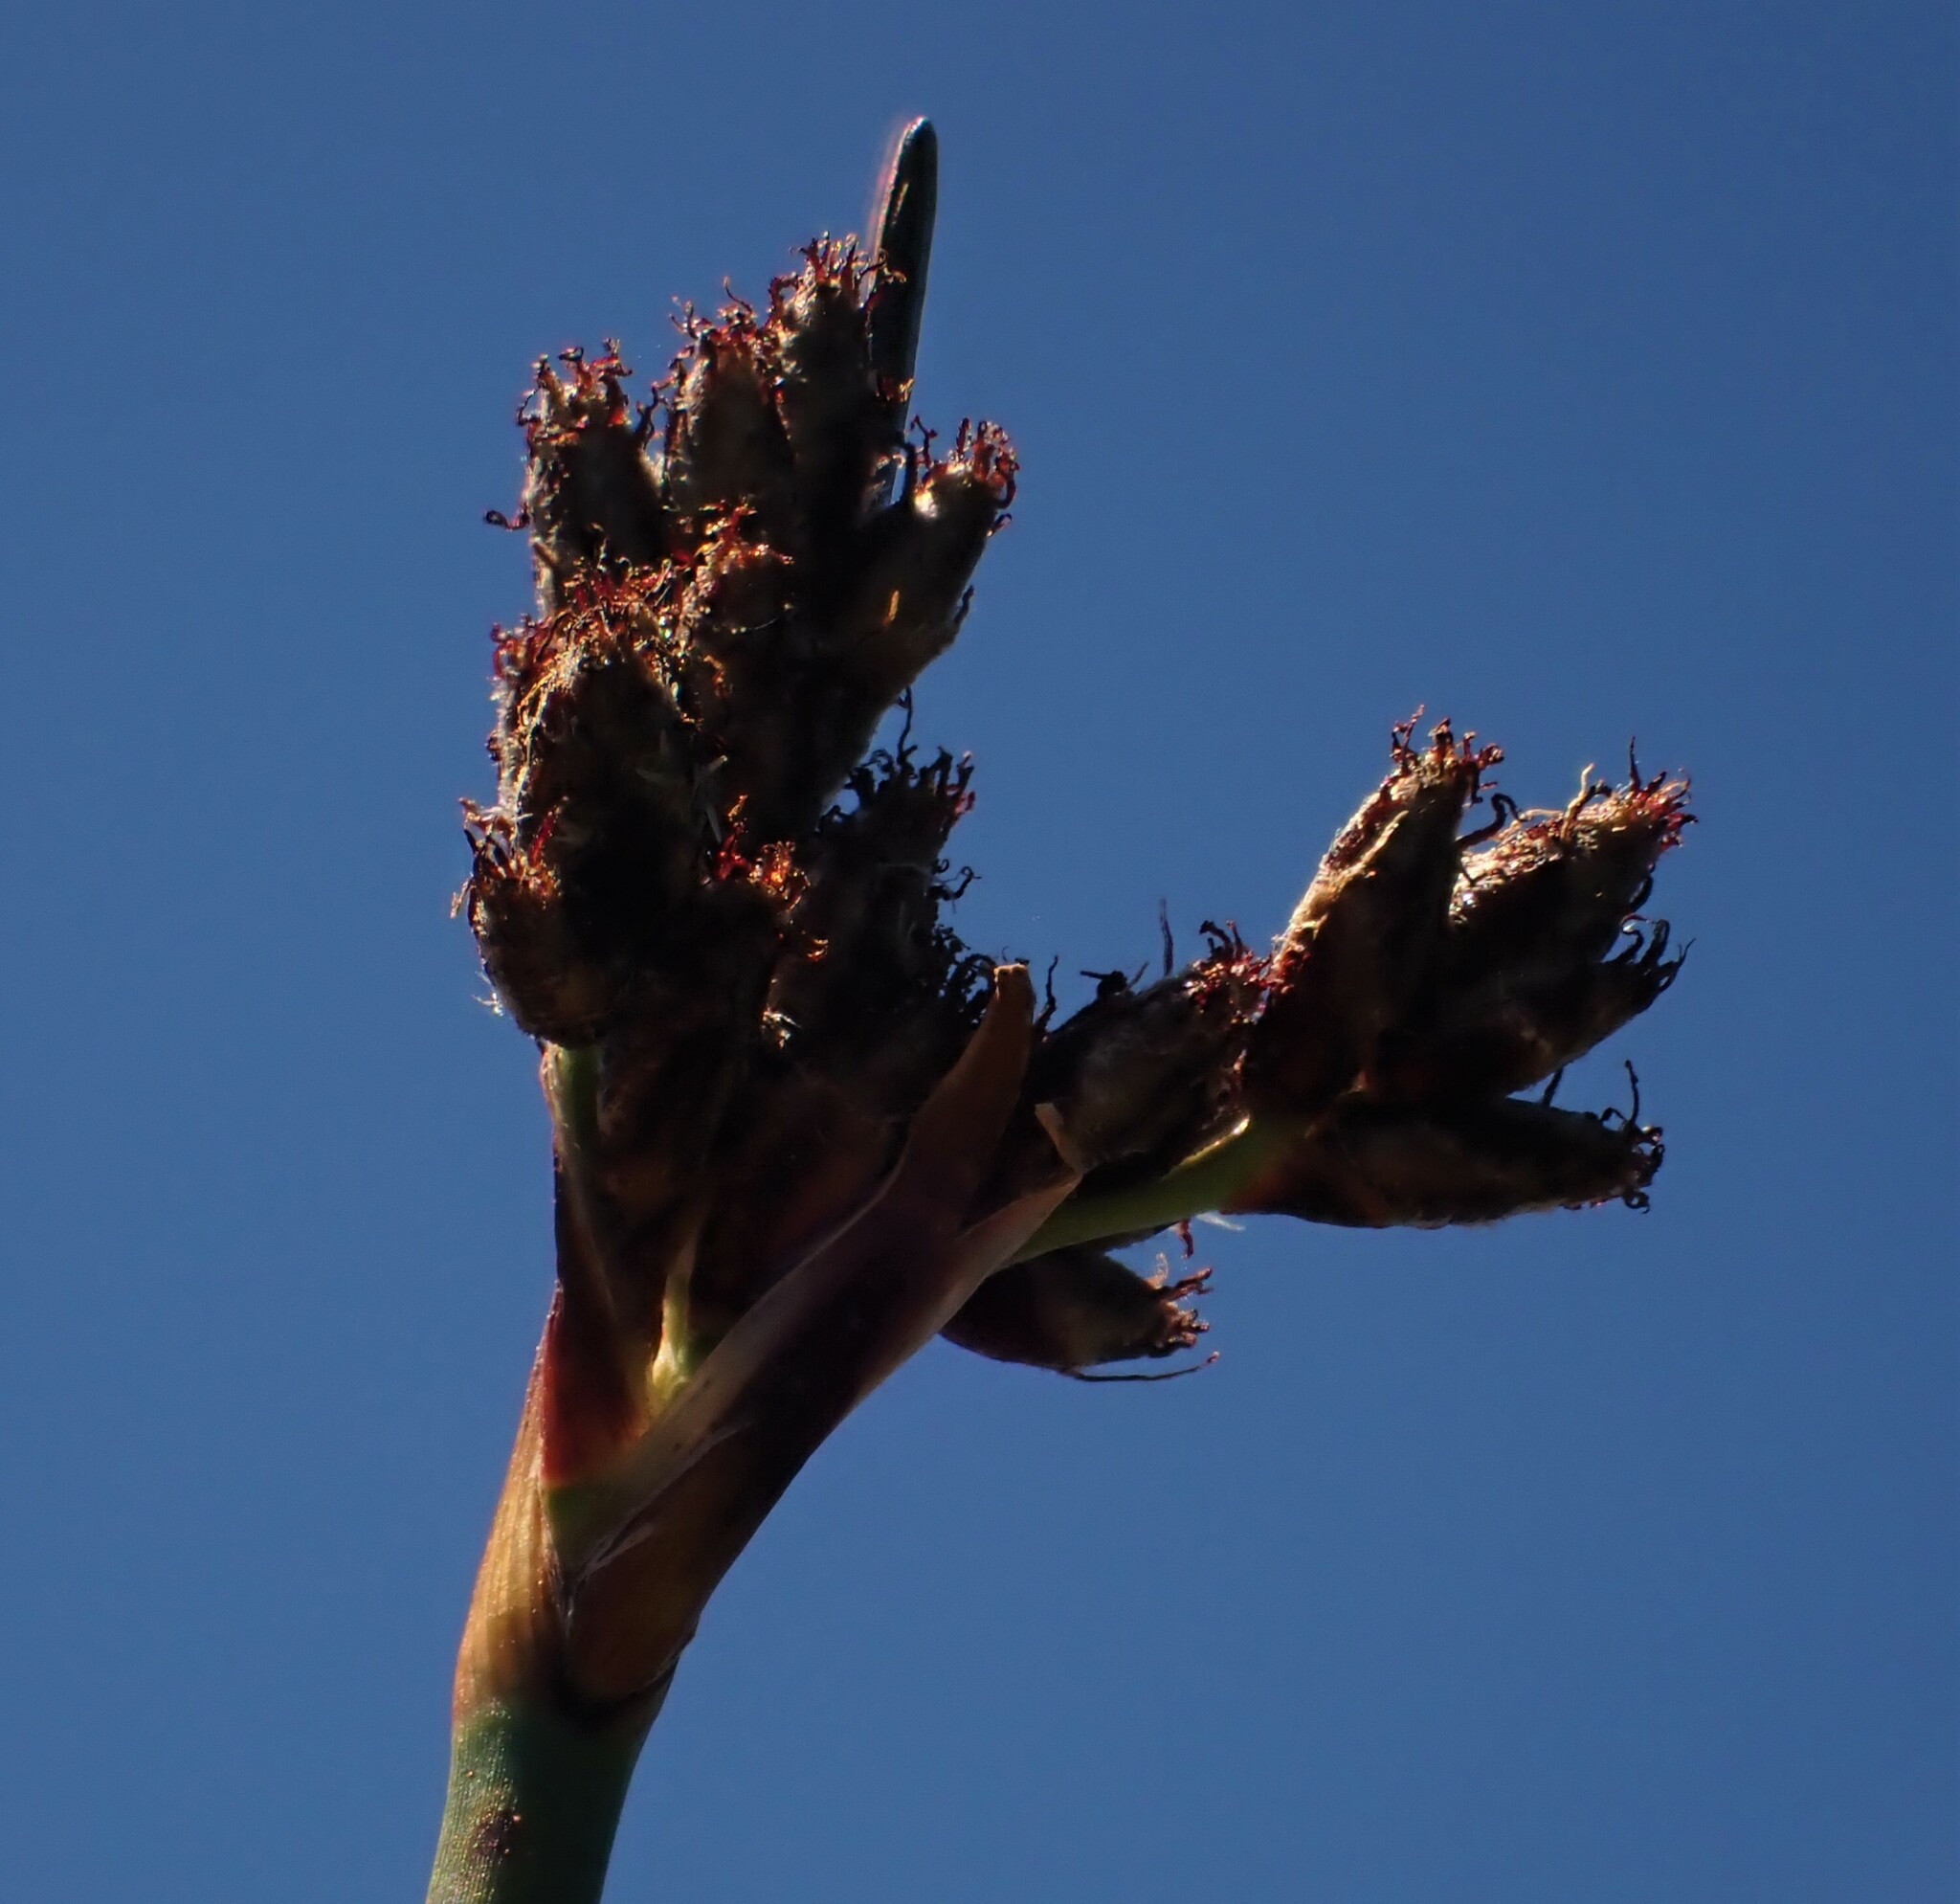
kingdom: Plantae
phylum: Tracheophyta
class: Liliopsida
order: Poales
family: Cyperaceae
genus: Schoenoplectus
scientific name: Schoenoplectus acutus
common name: Hardstem bulrush
